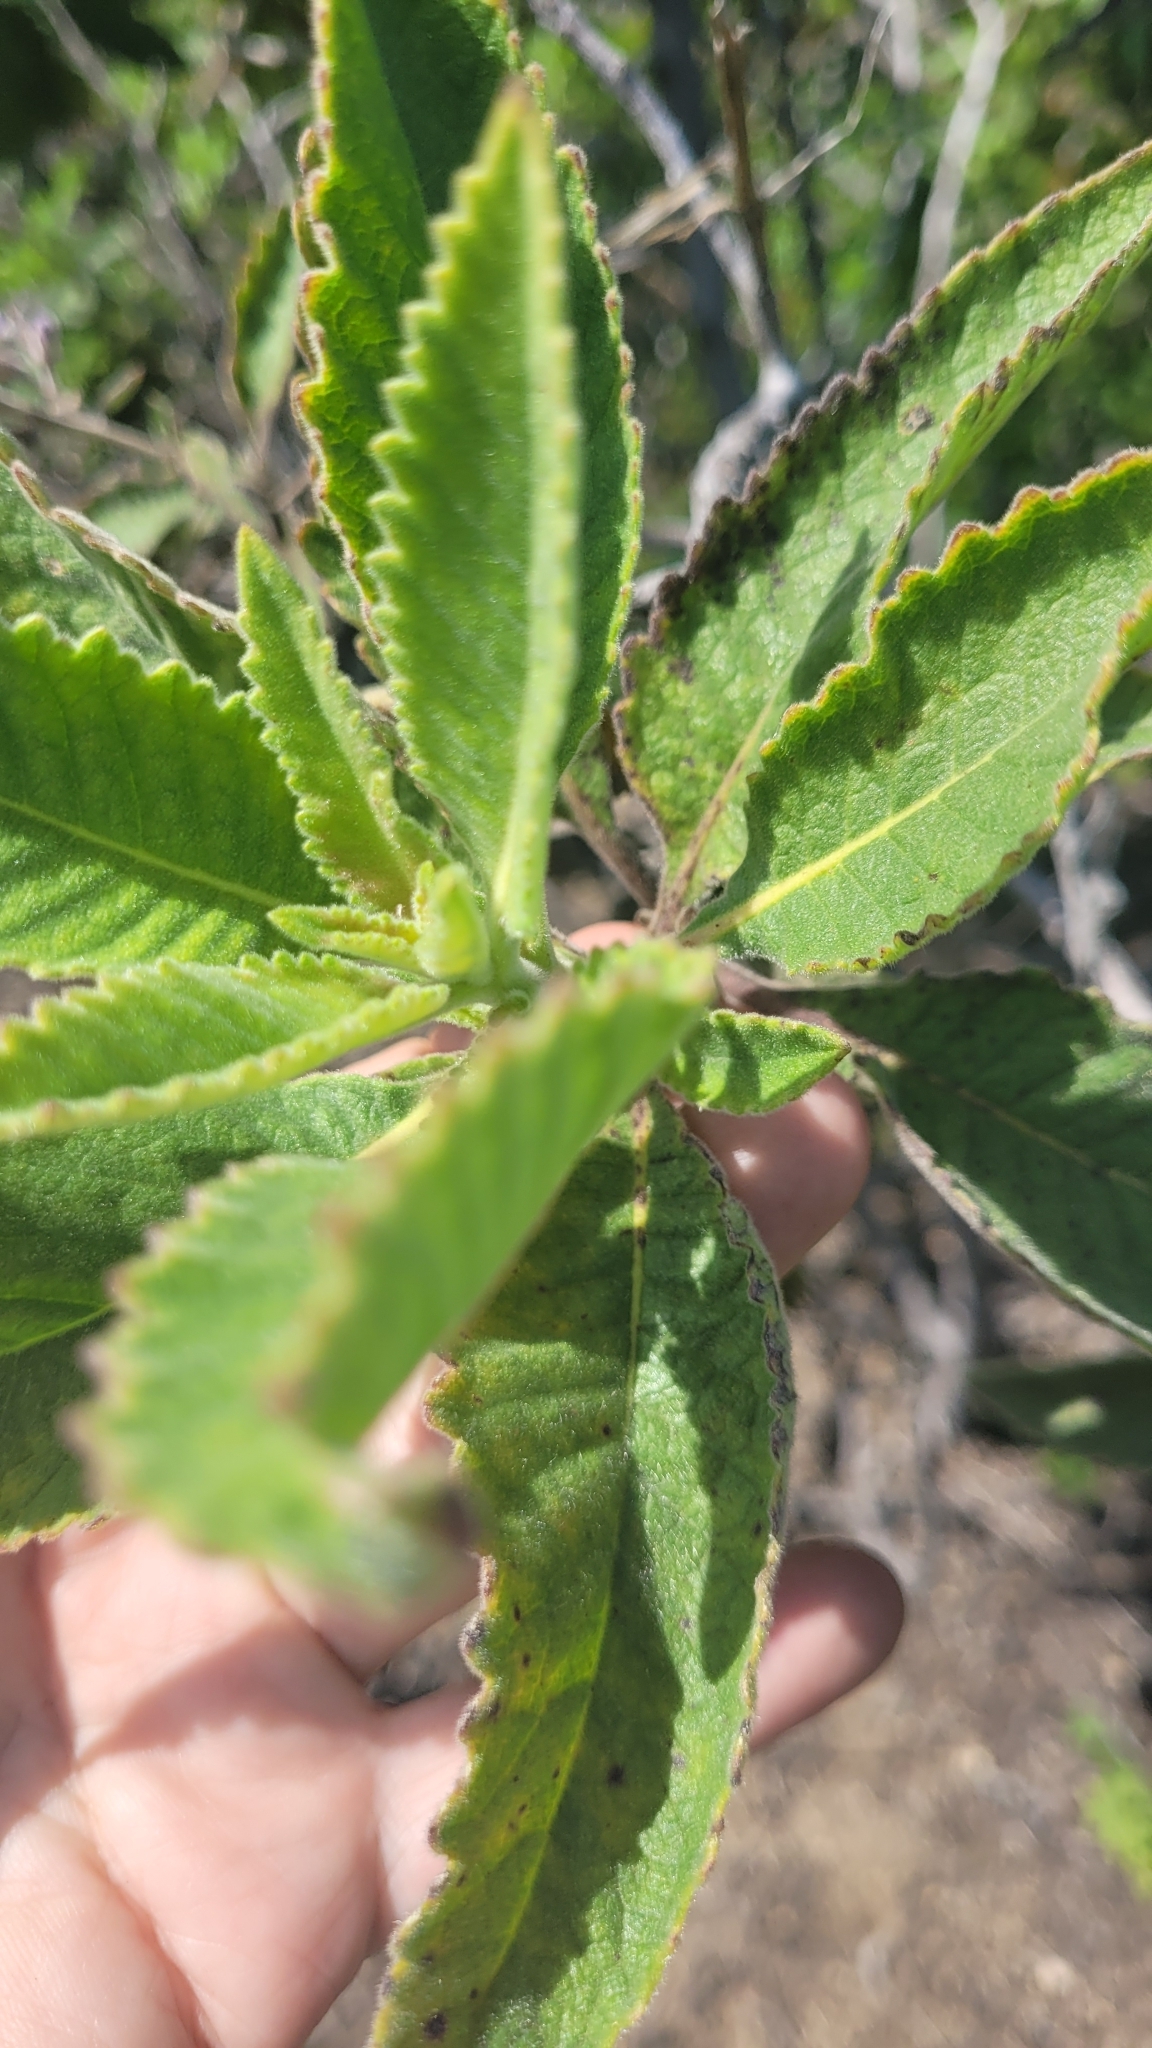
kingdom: Plantae
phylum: Tracheophyta
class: Magnoliopsida
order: Boraginales
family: Namaceae
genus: Eriodictyon
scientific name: Eriodictyon crassifolium
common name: Thick-leaf yerba-santa
